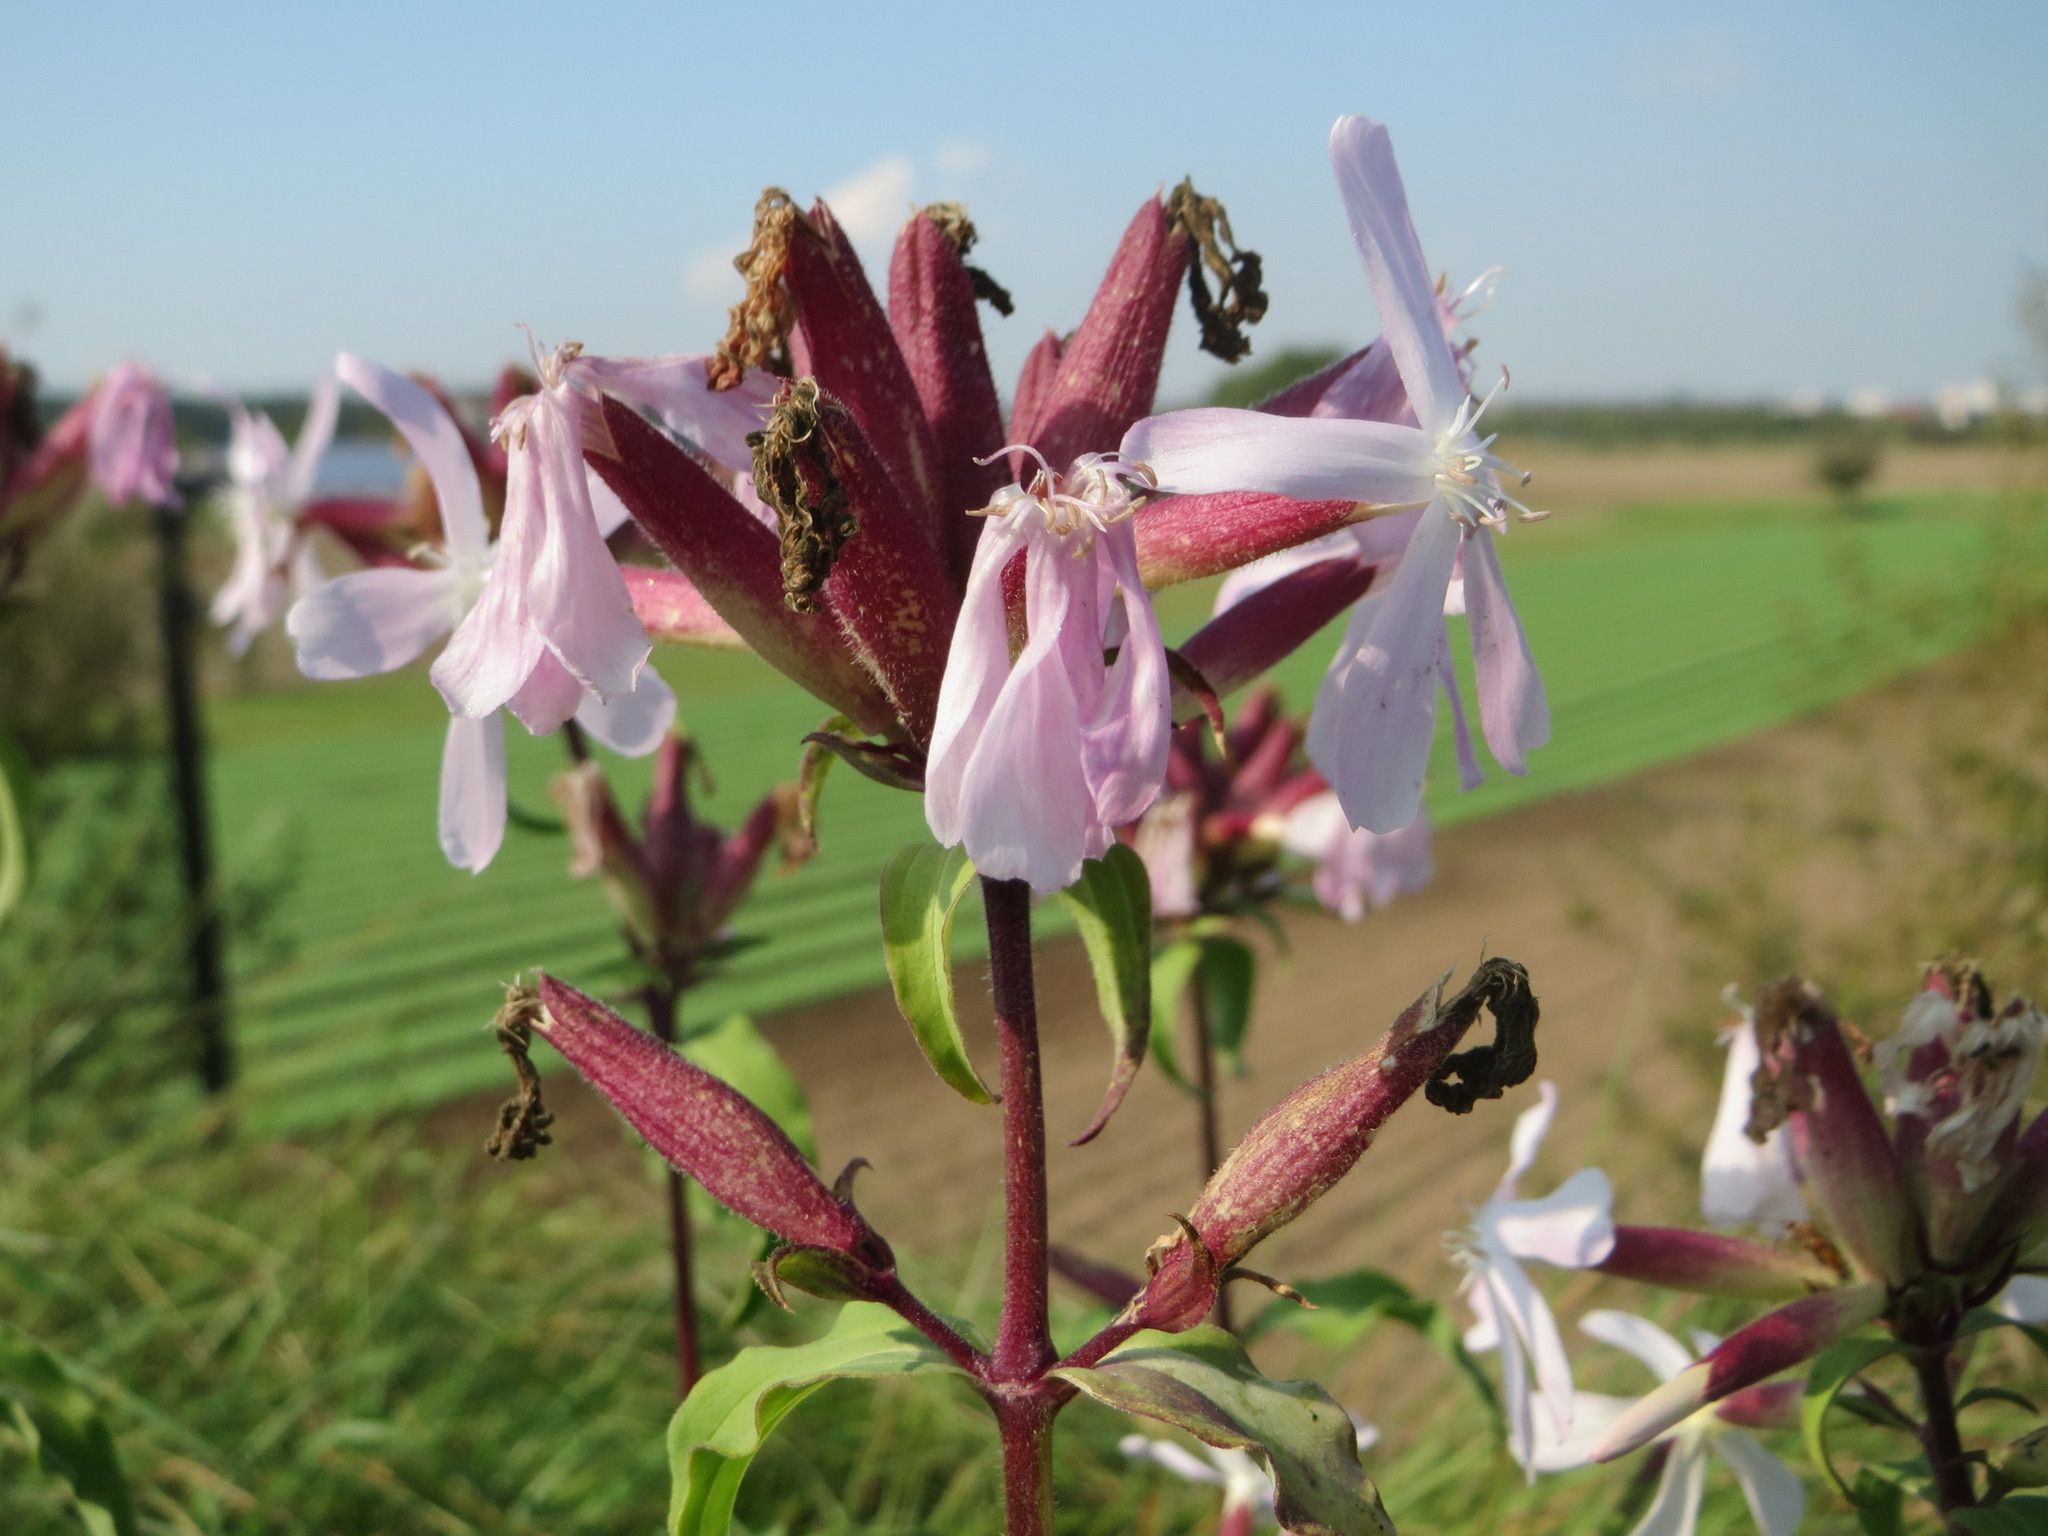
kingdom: Plantae
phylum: Tracheophyta
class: Magnoliopsida
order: Caryophyllales
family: Caryophyllaceae
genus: Saponaria
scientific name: Saponaria officinalis
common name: Soapwort
